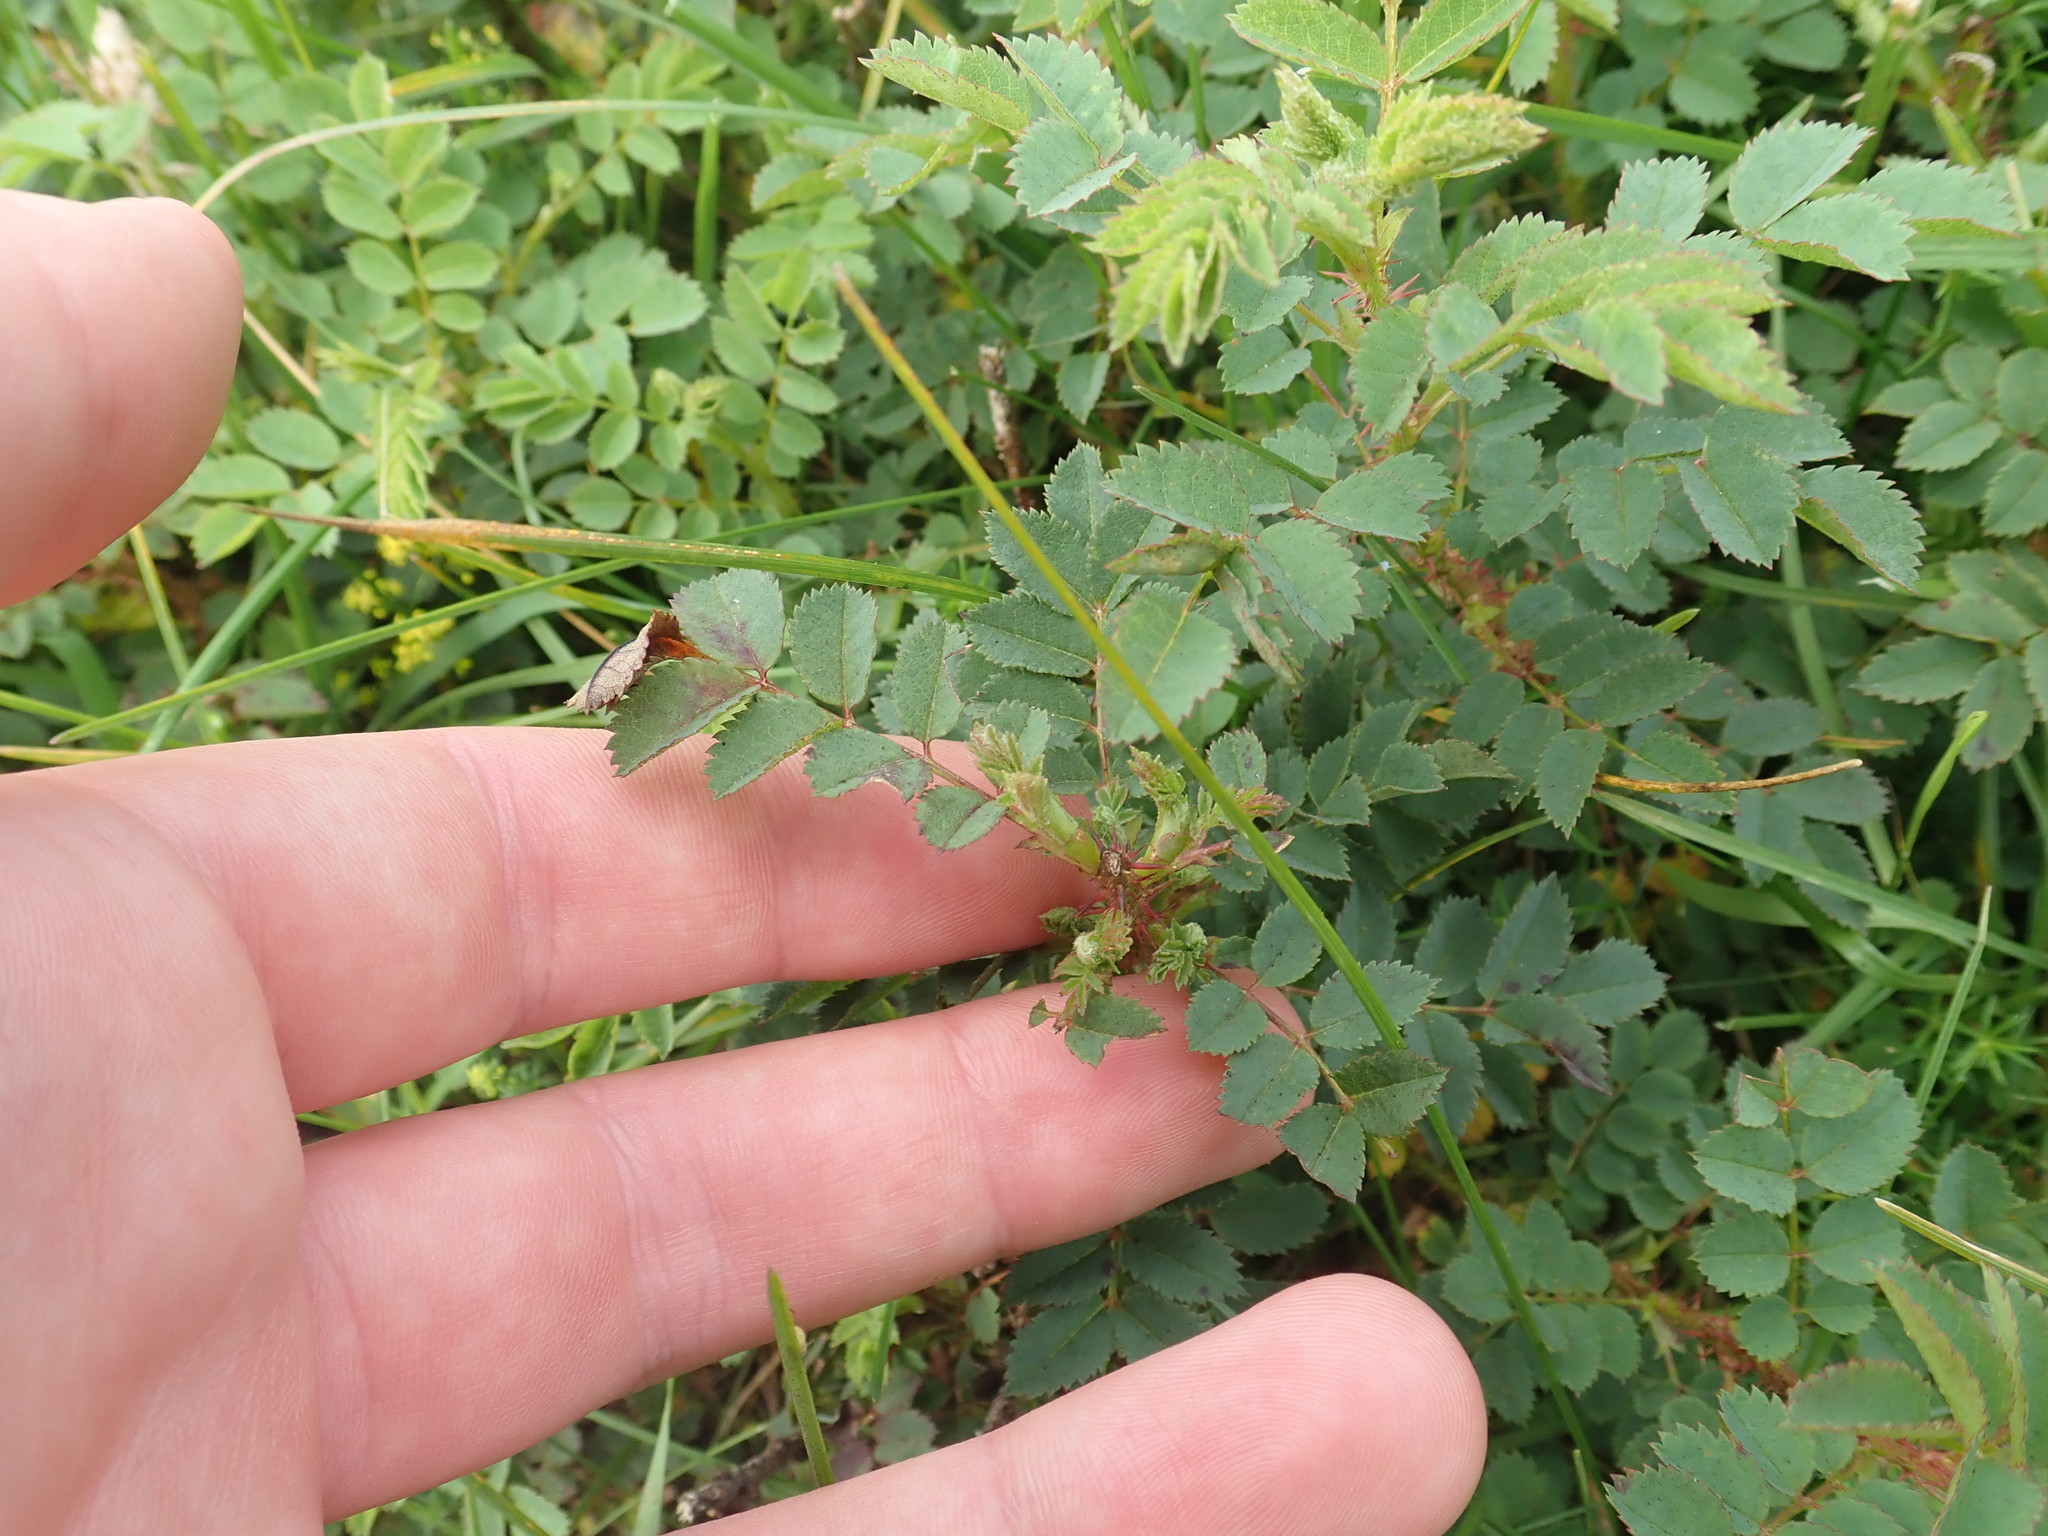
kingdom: Plantae
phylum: Tracheophyta
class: Magnoliopsida
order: Rosales
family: Rosaceae
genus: Rosa
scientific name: Rosa spinosissima
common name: Burnet rose
